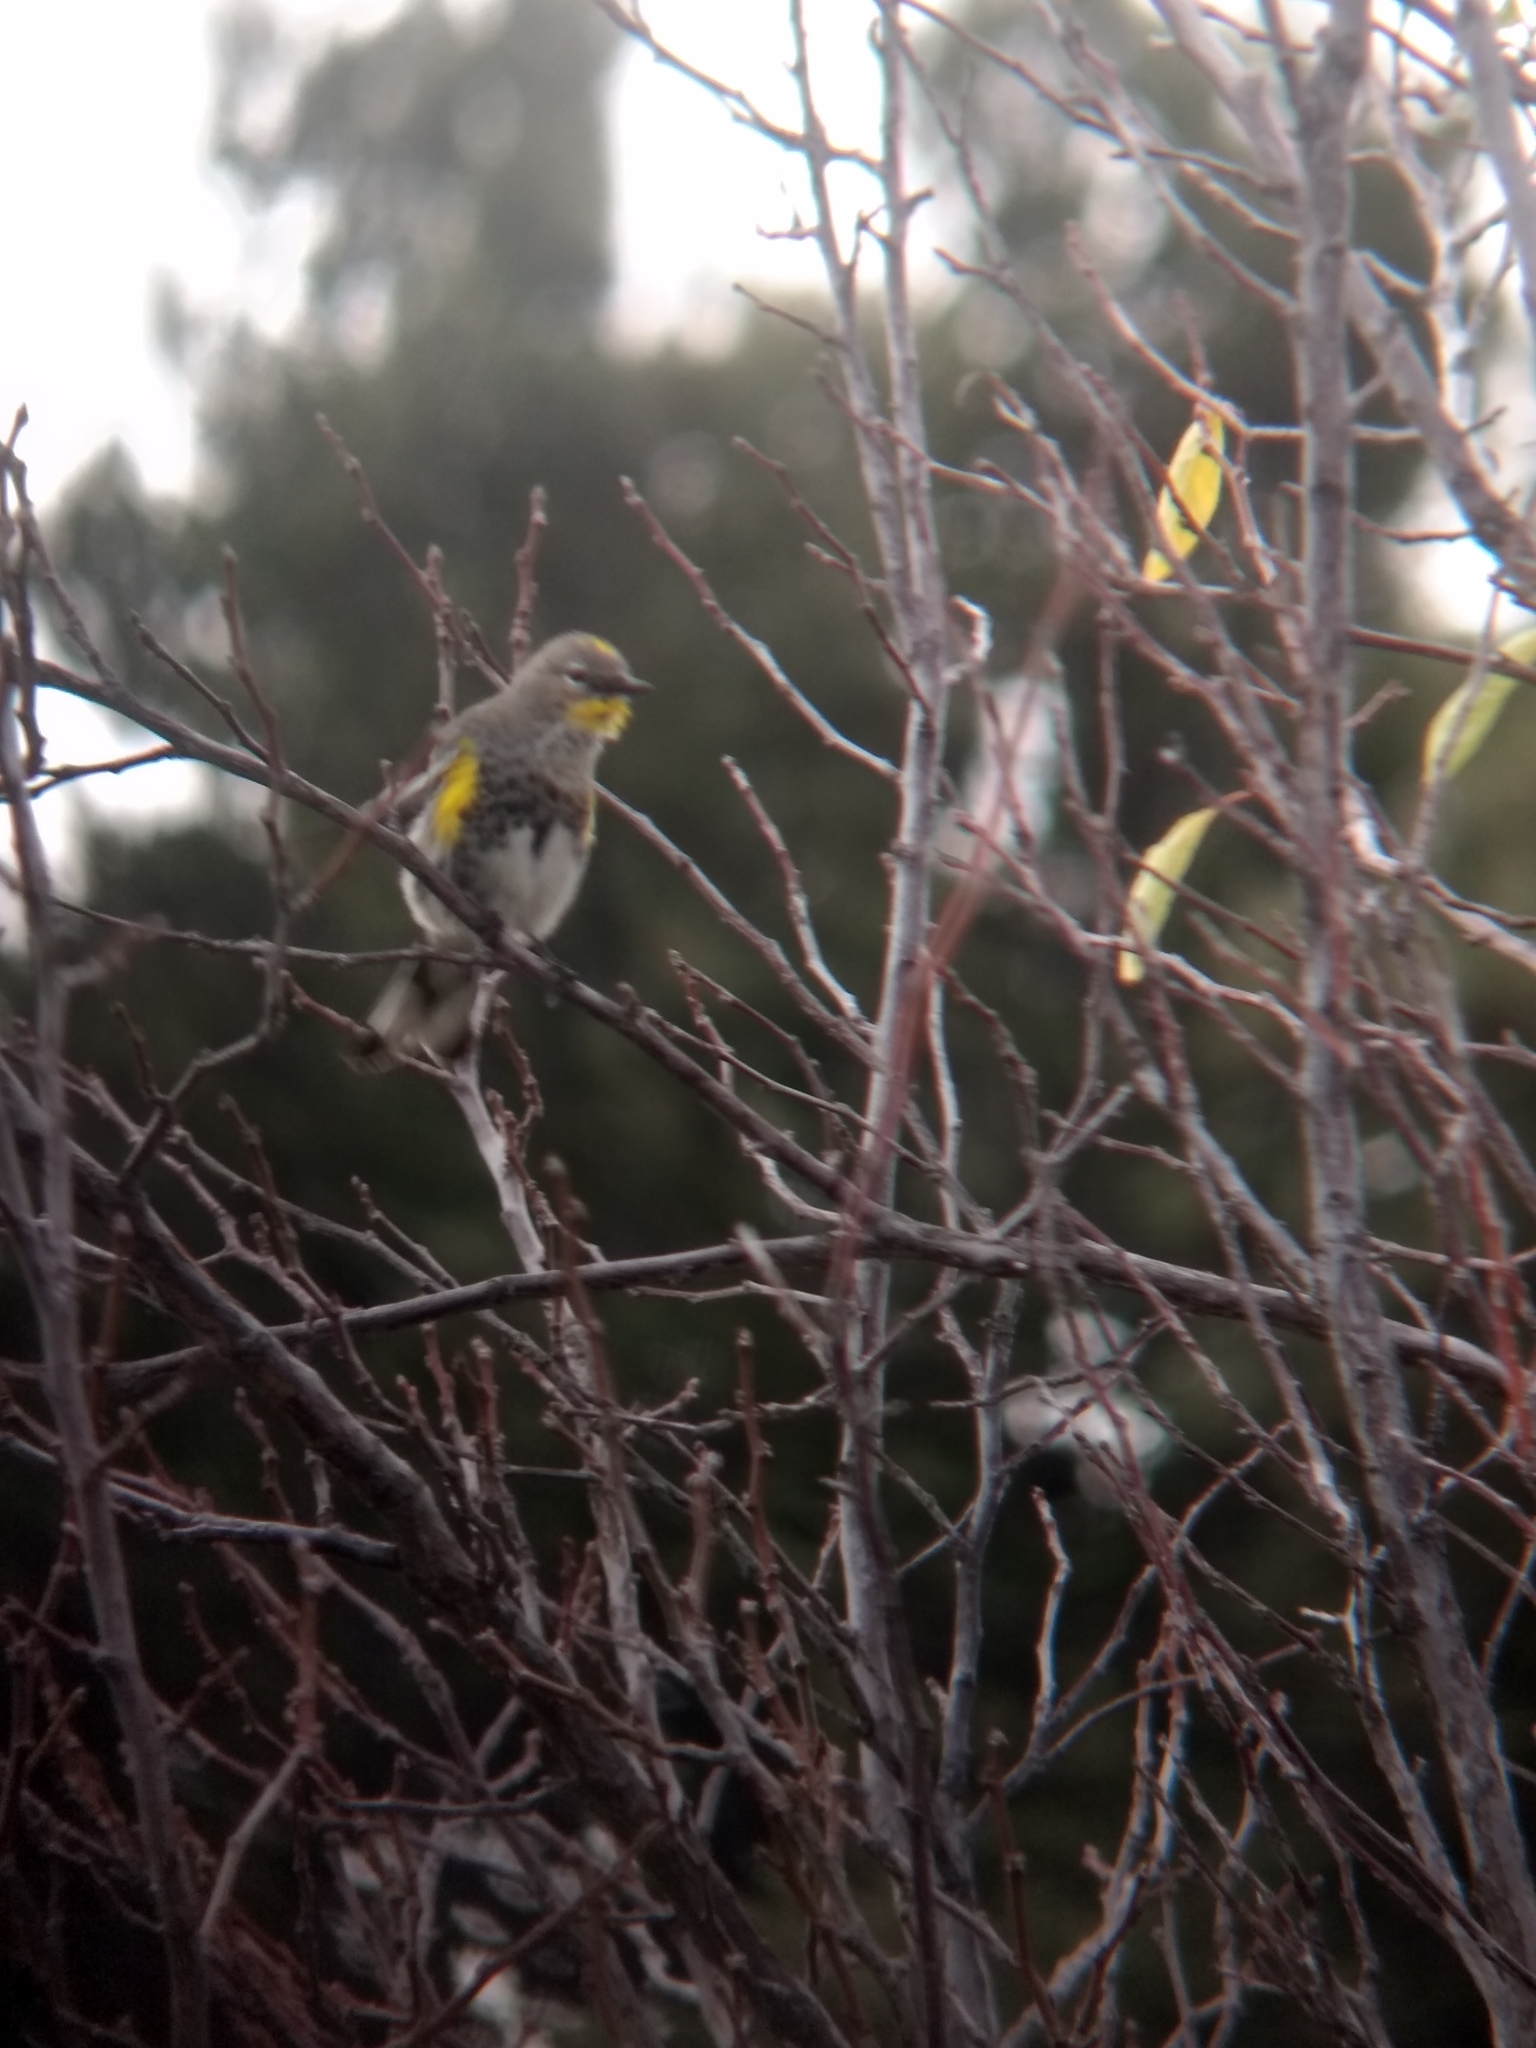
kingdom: Animalia
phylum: Chordata
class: Aves
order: Passeriformes
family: Parulidae
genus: Setophaga
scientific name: Setophaga coronata
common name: Myrtle warbler
